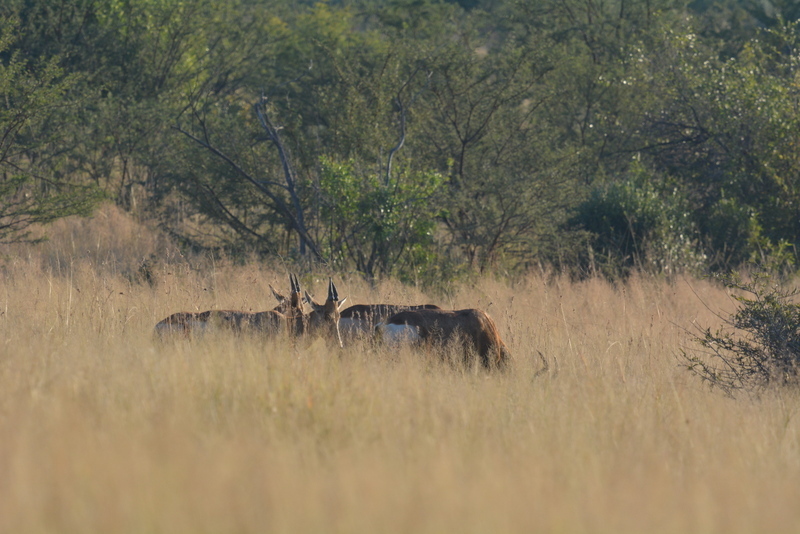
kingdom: Animalia
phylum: Chordata
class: Mammalia
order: Artiodactyla
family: Bovidae
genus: Alcelaphus
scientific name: Alcelaphus caama
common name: Red hartebeest
